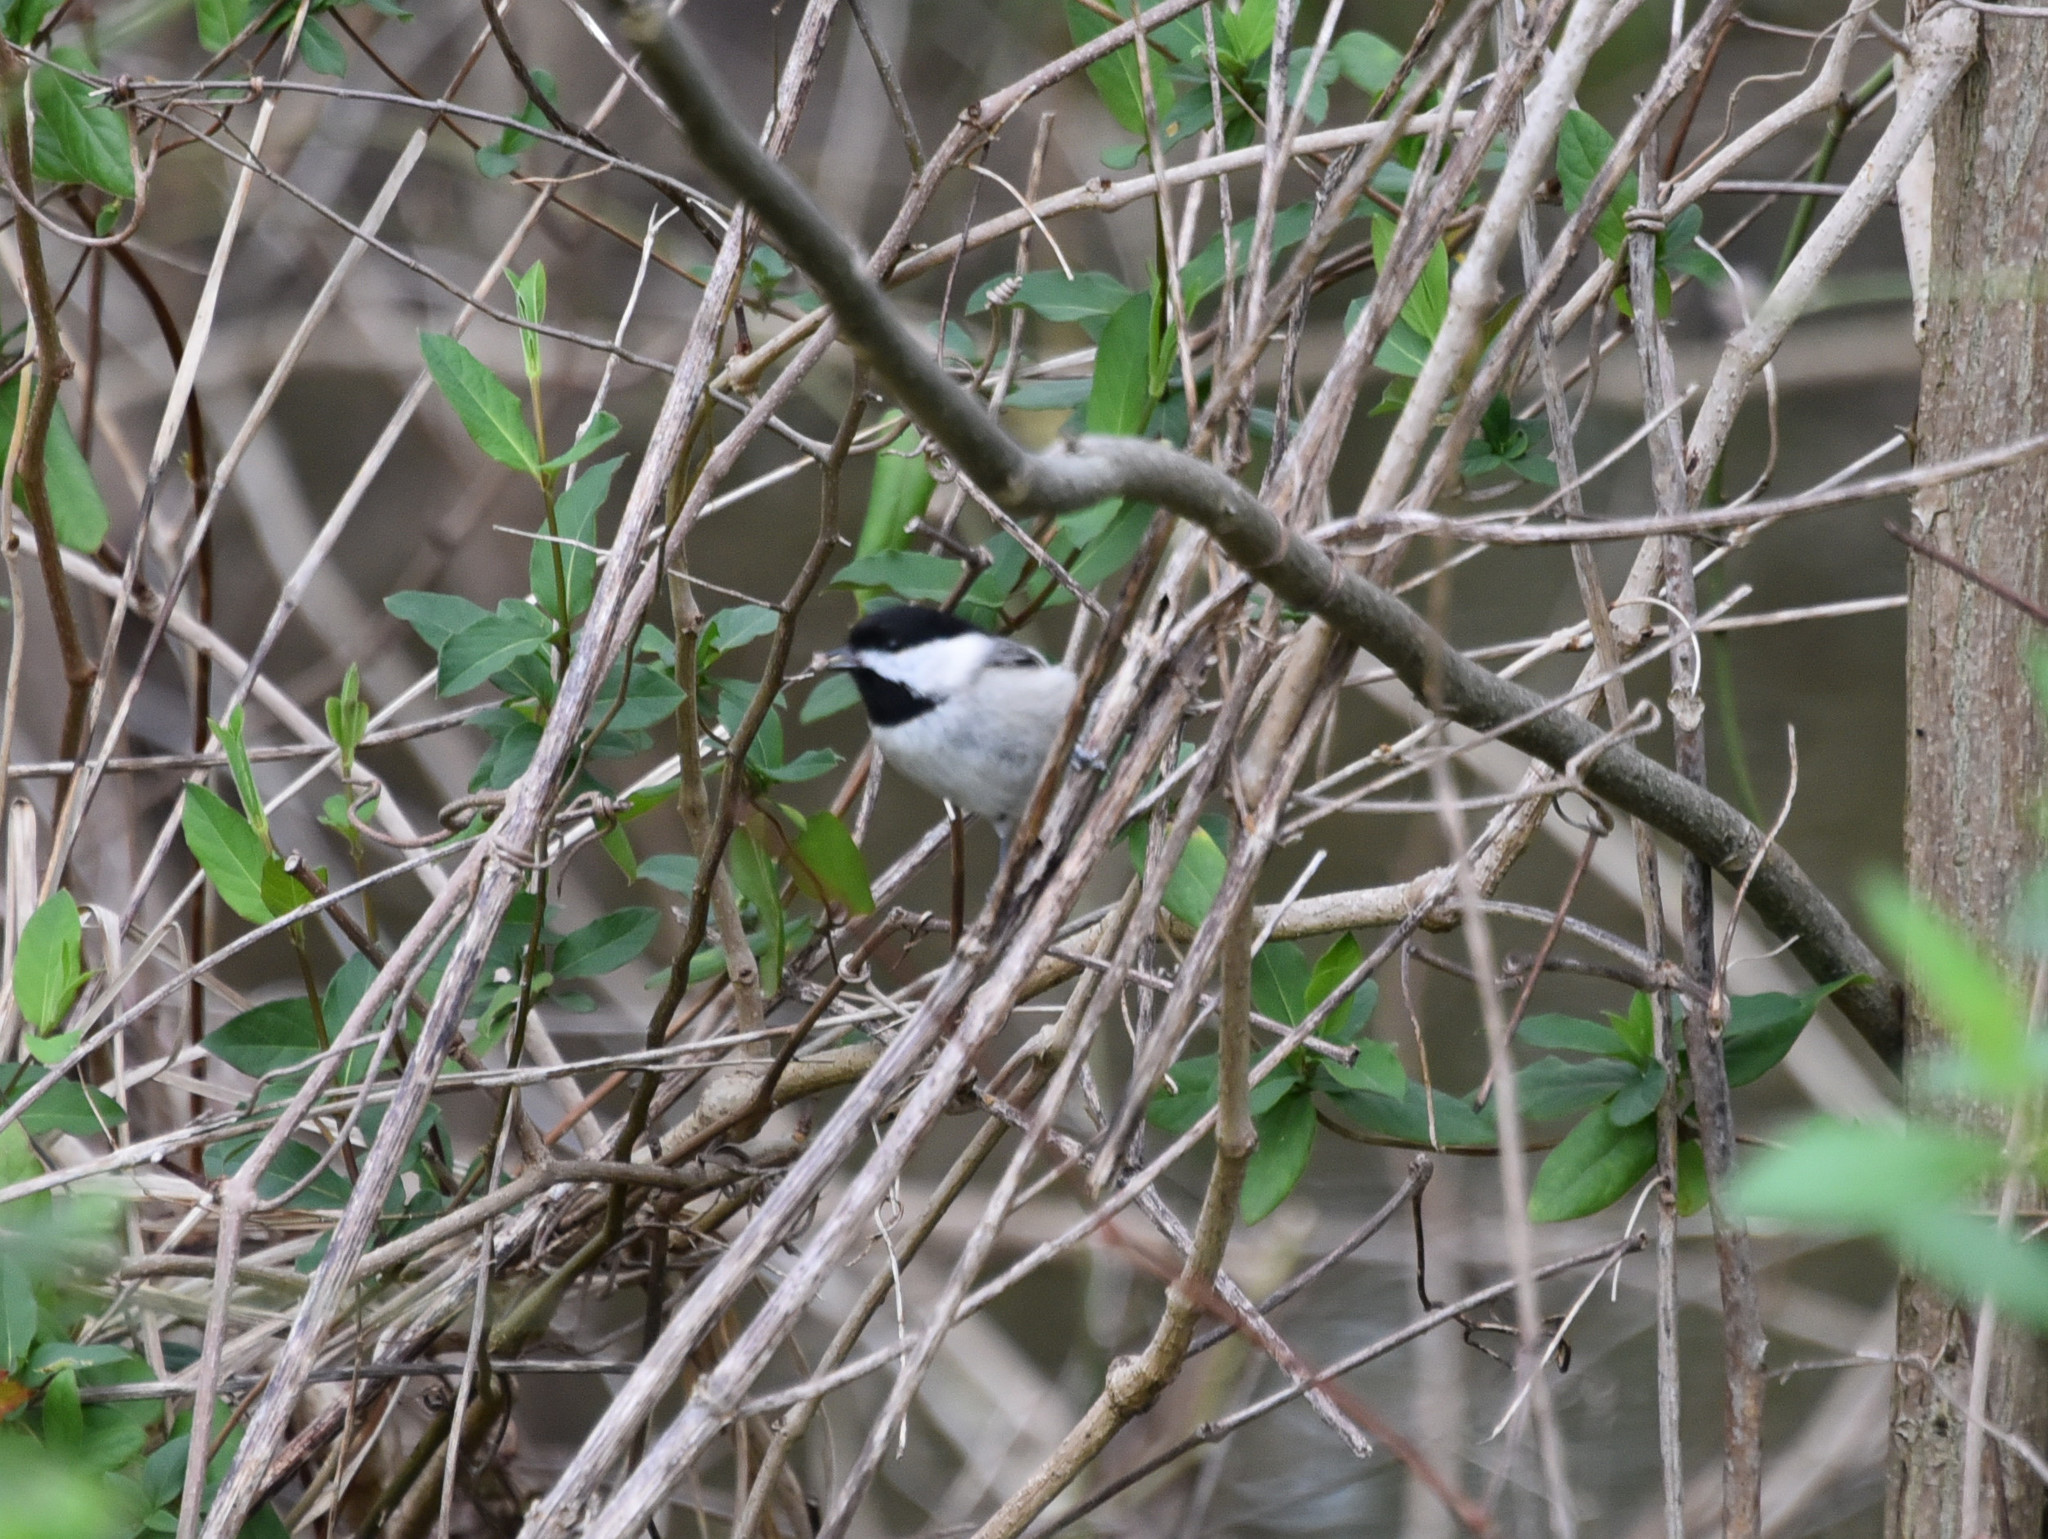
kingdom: Animalia
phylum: Chordata
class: Aves
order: Passeriformes
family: Paridae
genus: Poecile
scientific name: Poecile carolinensis
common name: Carolina chickadee
